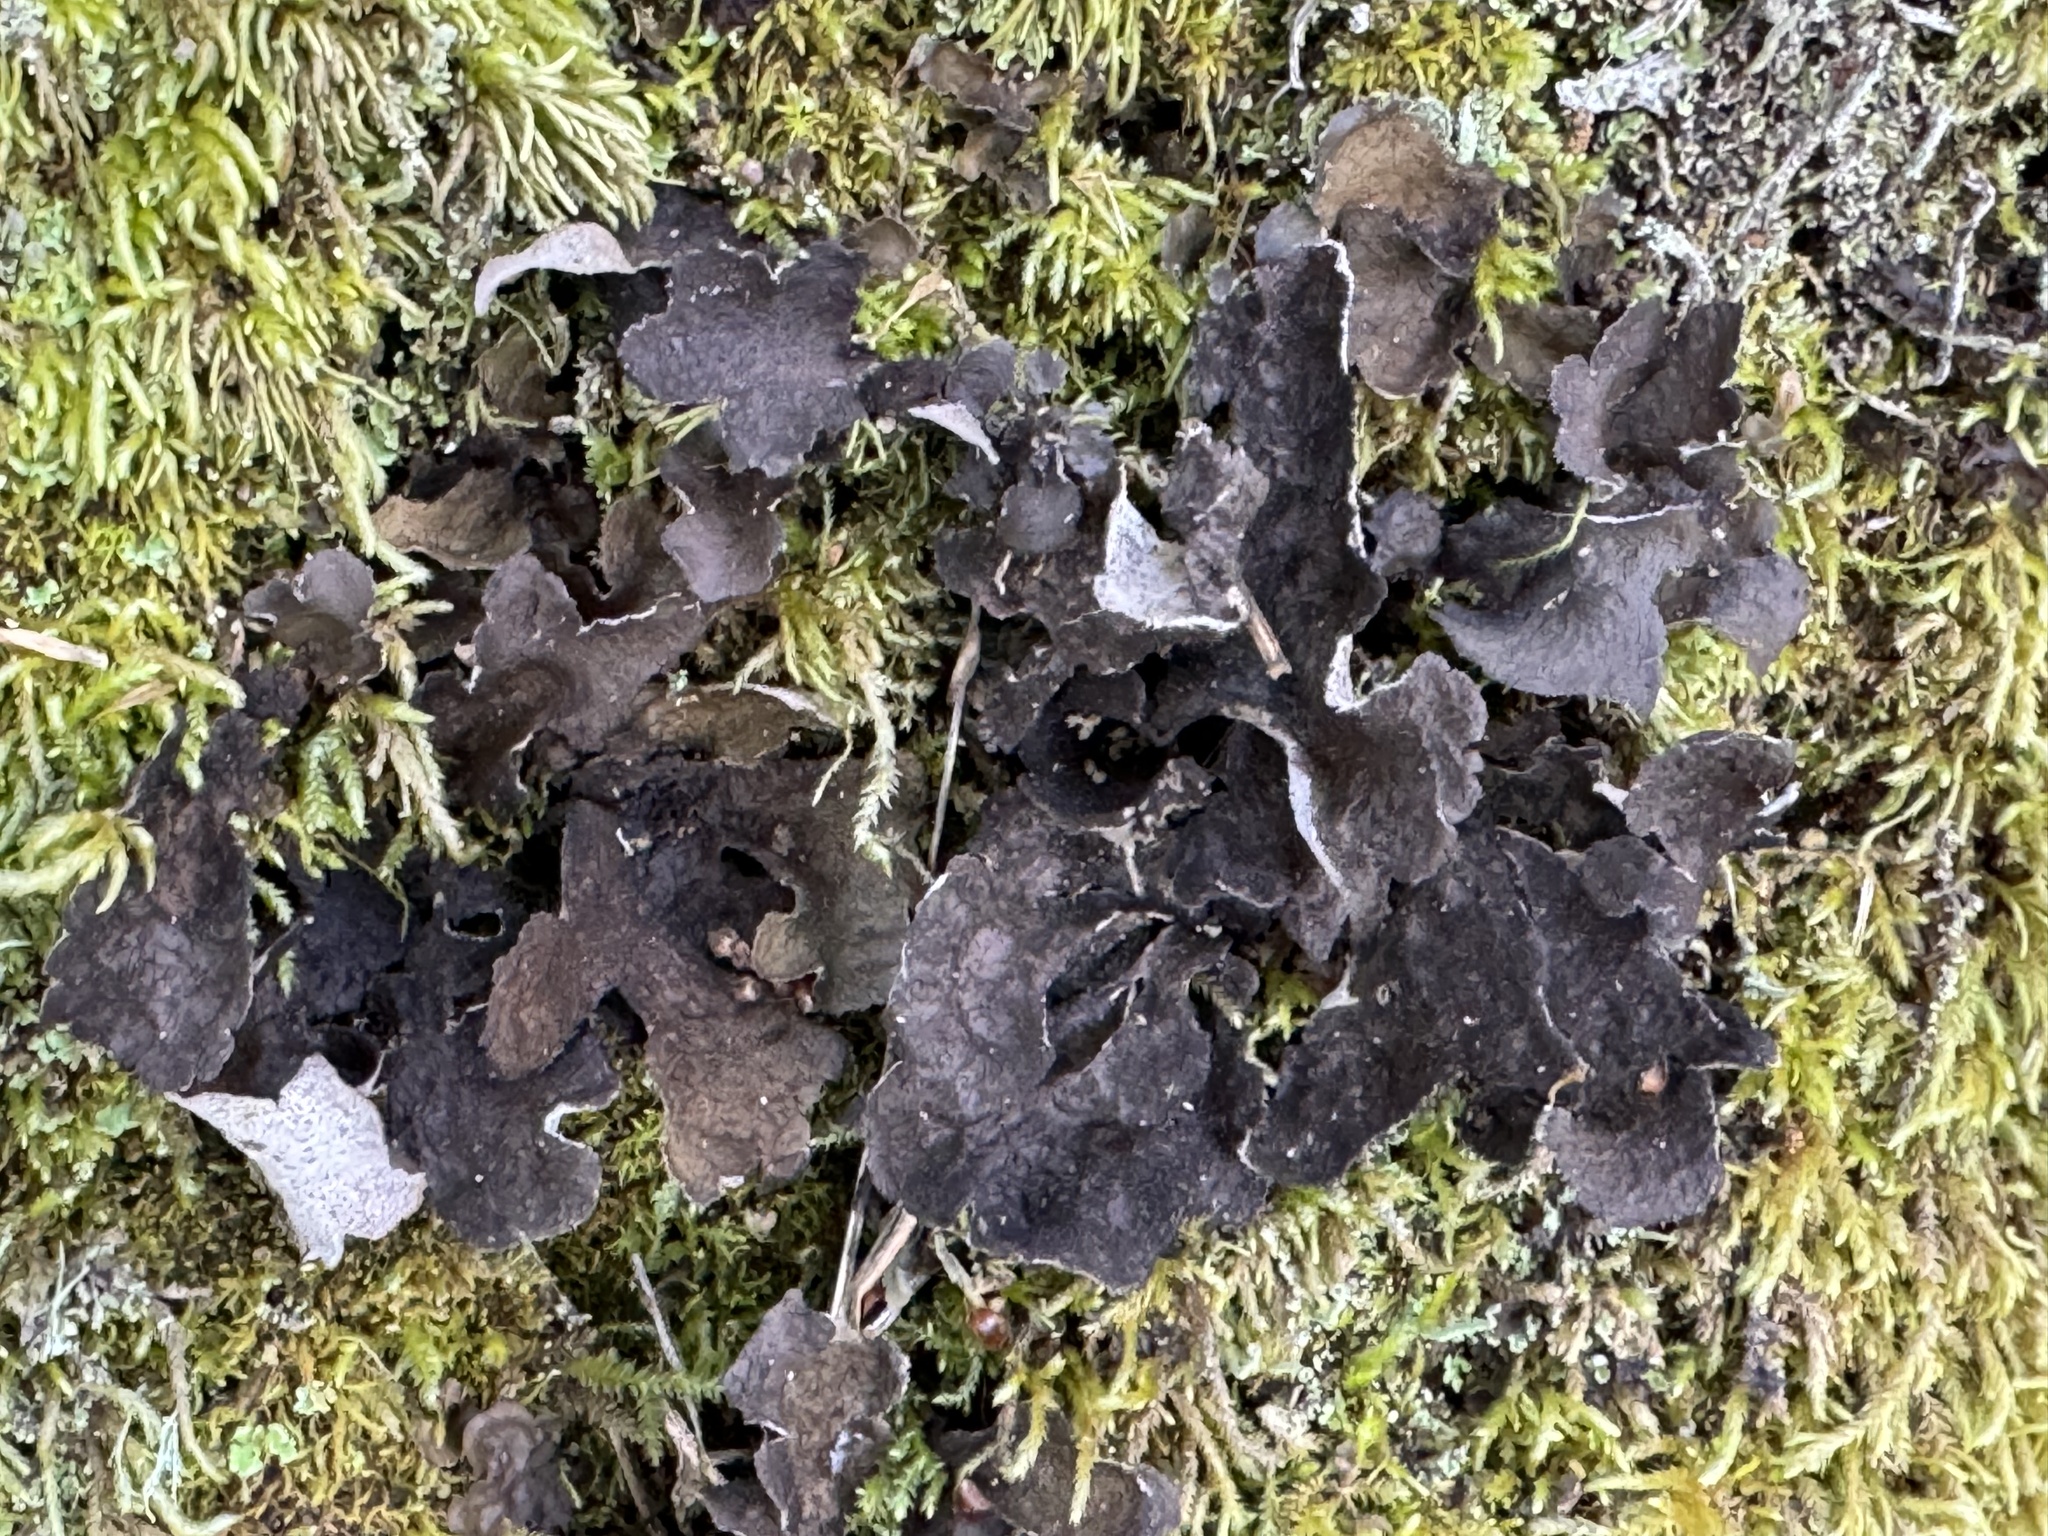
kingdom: Fungi
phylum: Ascomycota
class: Lecanoromycetes
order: Peltigerales
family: Lobariaceae
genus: Sticta
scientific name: Sticta
